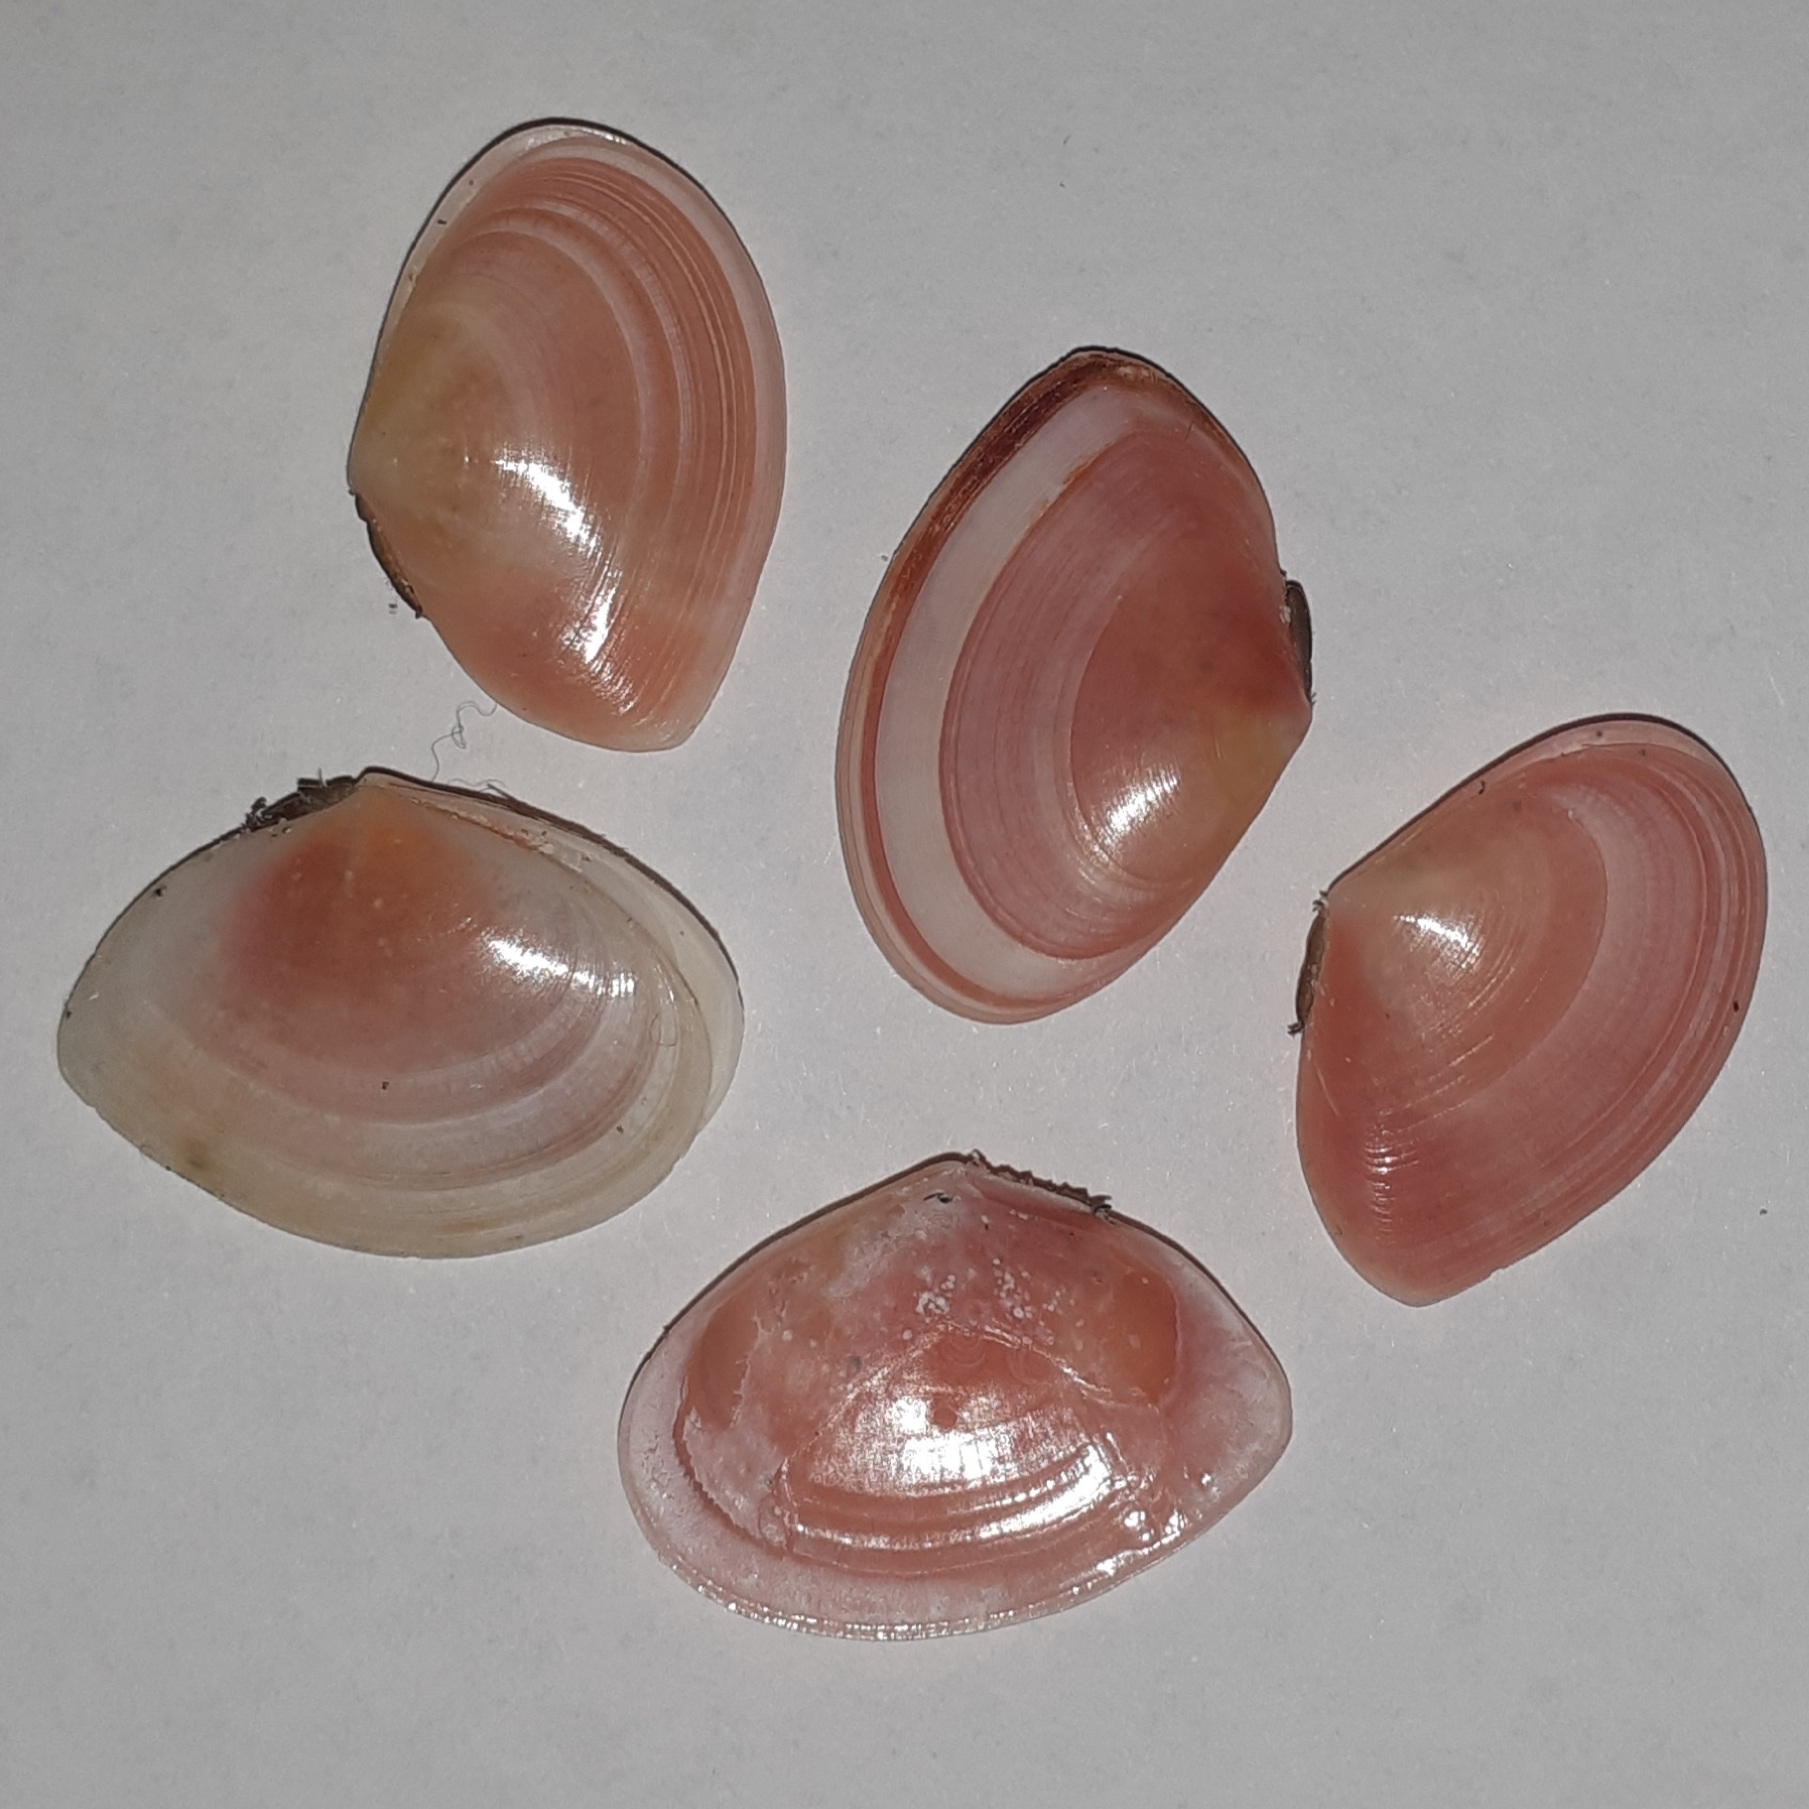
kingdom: Animalia
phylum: Mollusca
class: Bivalvia
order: Cardiida
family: Tellinidae
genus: Macomangulus
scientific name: Macomangulus tenuis
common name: Thin tellin
